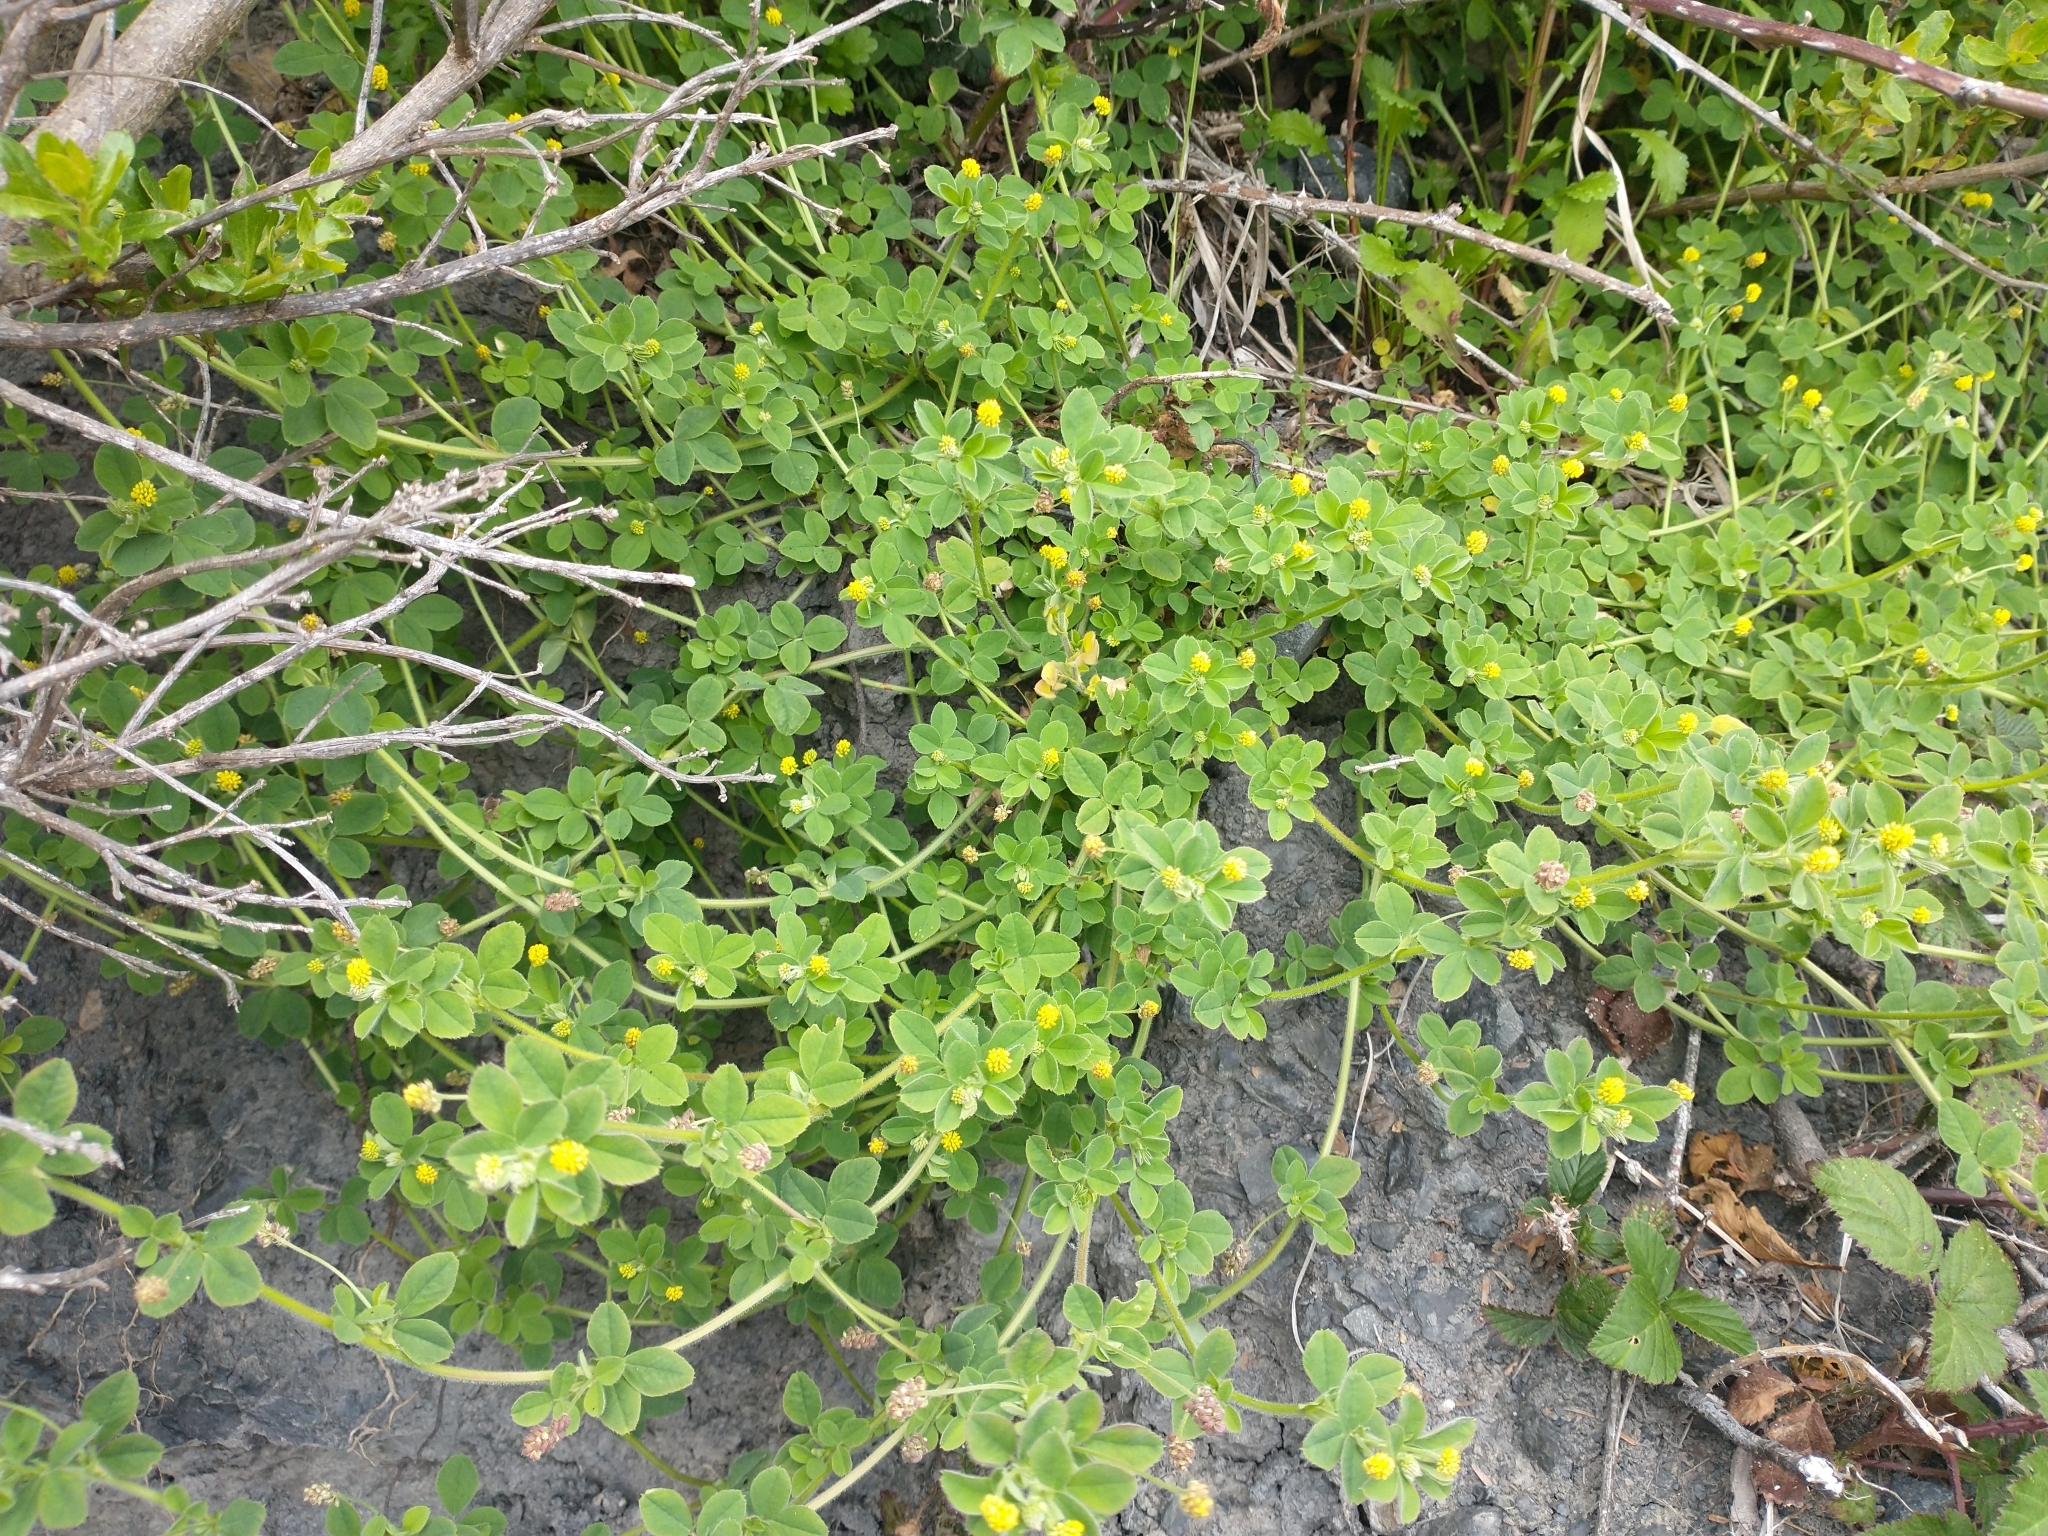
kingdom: Plantae
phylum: Tracheophyta
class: Magnoliopsida
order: Fabales
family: Fabaceae
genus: Medicago
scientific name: Medicago lupulina
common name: Black medick
